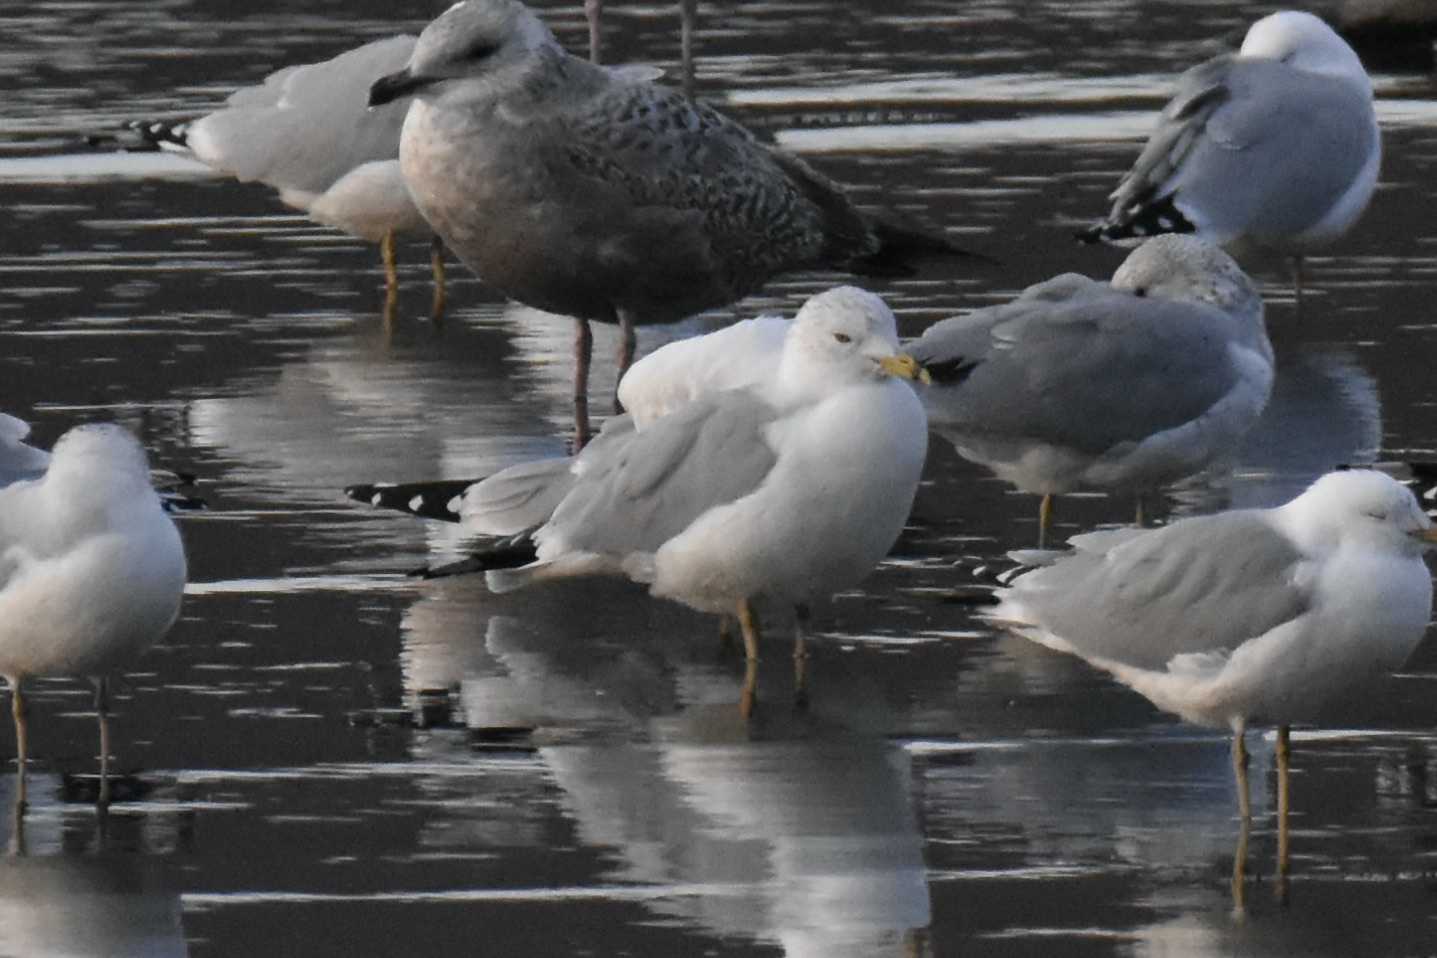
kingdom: Animalia
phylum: Chordata
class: Aves
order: Charadriiformes
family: Laridae
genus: Larus
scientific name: Larus delawarensis
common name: Ring-billed gull
